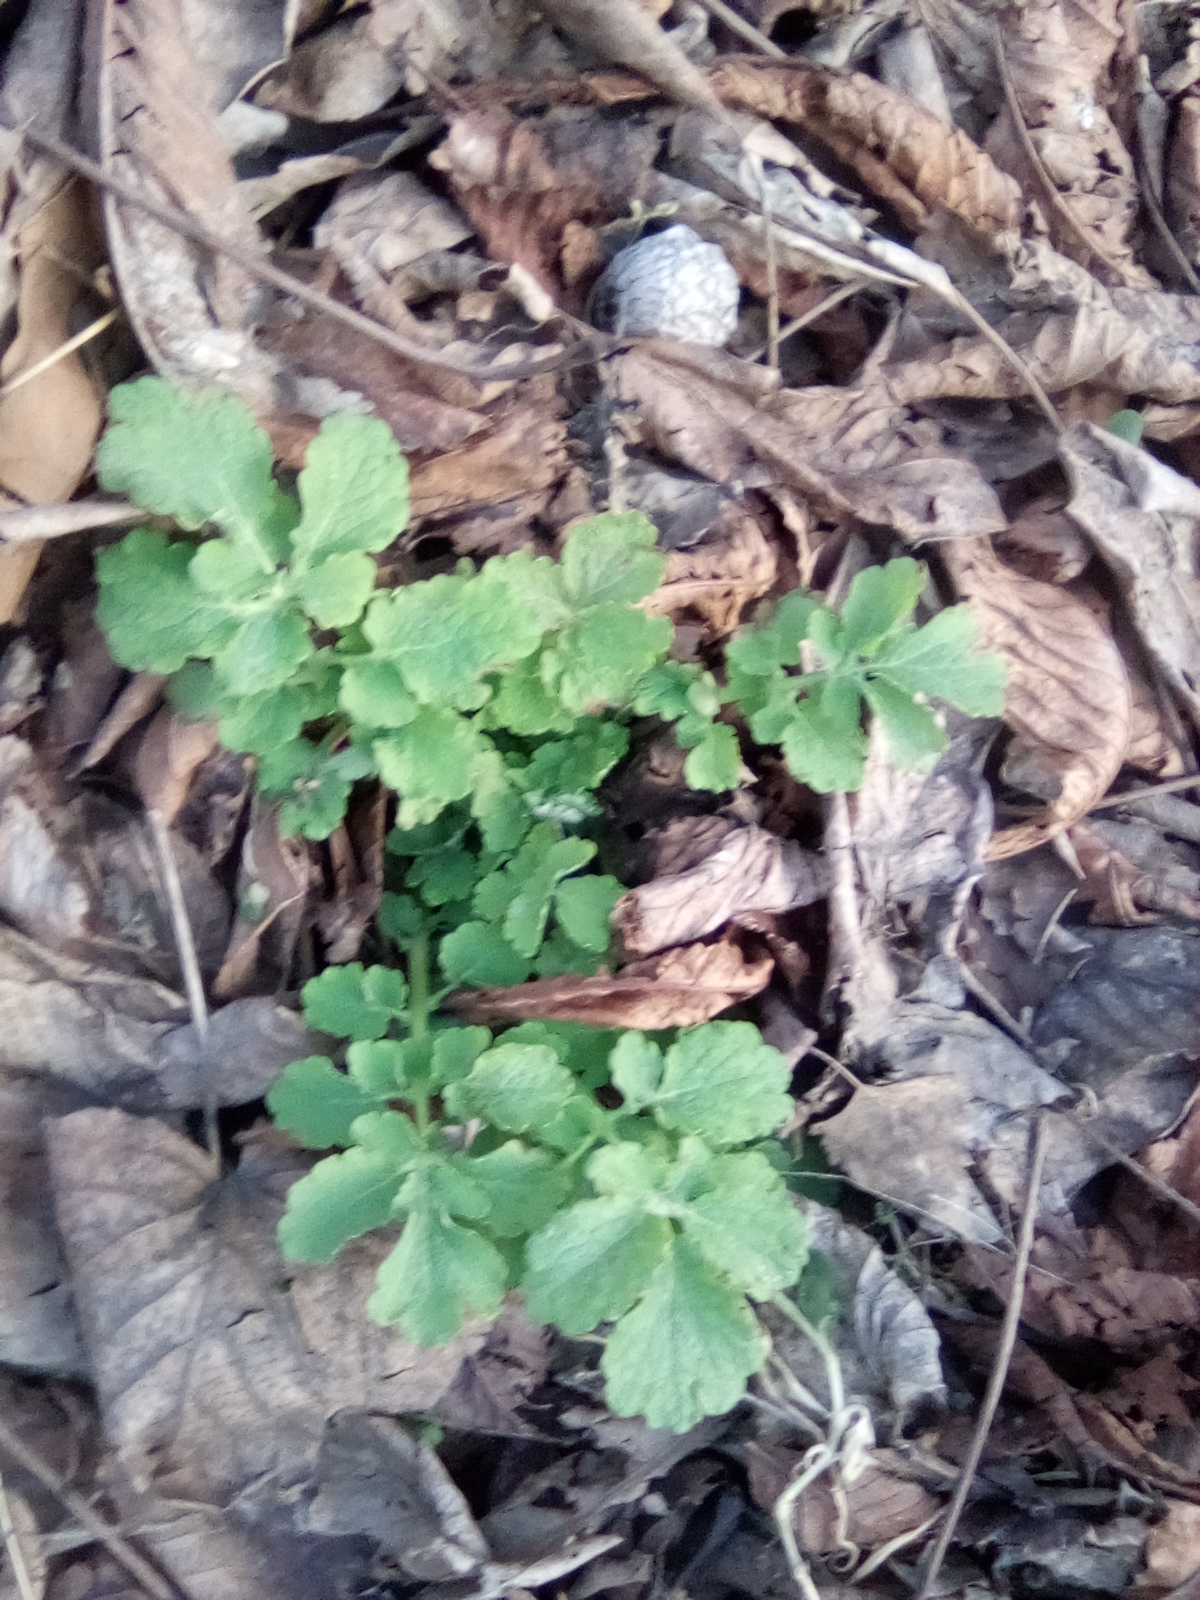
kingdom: Plantae
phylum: Tracheophyta
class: Magnoliopsida
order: Ranunculales
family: Papaveraceae
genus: Chelidonium
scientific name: Chelidonium majus
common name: Greater celandine
